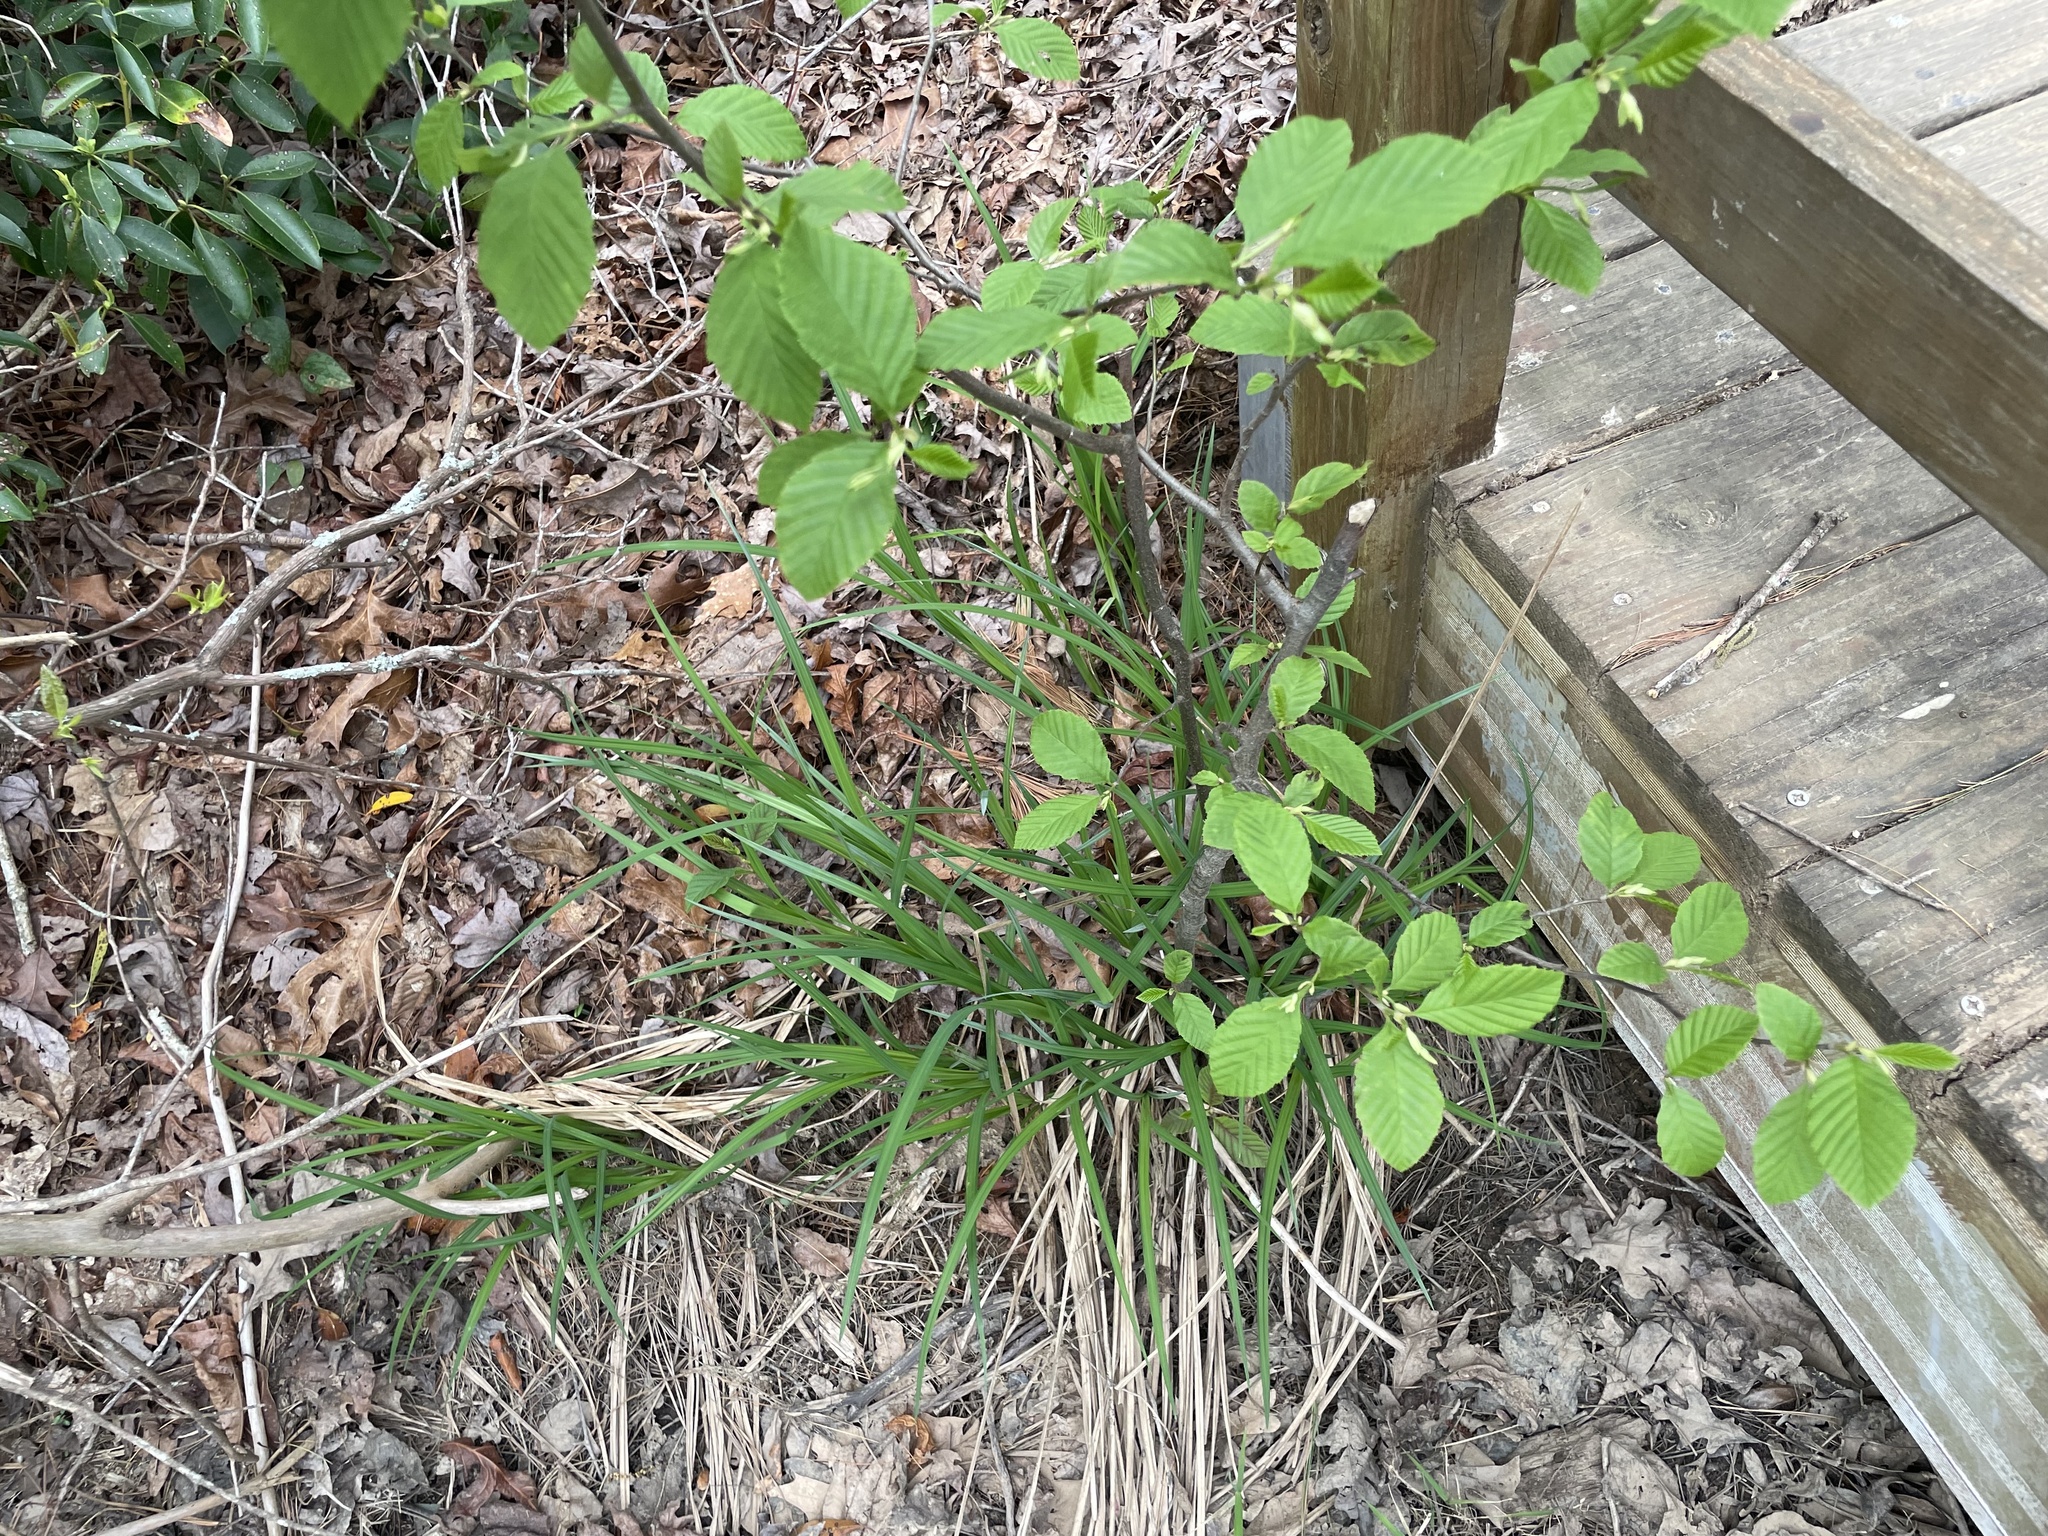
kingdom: Plantae
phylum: Tracheophyta
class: Magnoliopsida
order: Fagales
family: Betulaceae
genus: Alnus
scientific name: Alnus serrulata
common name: Hazel alder
